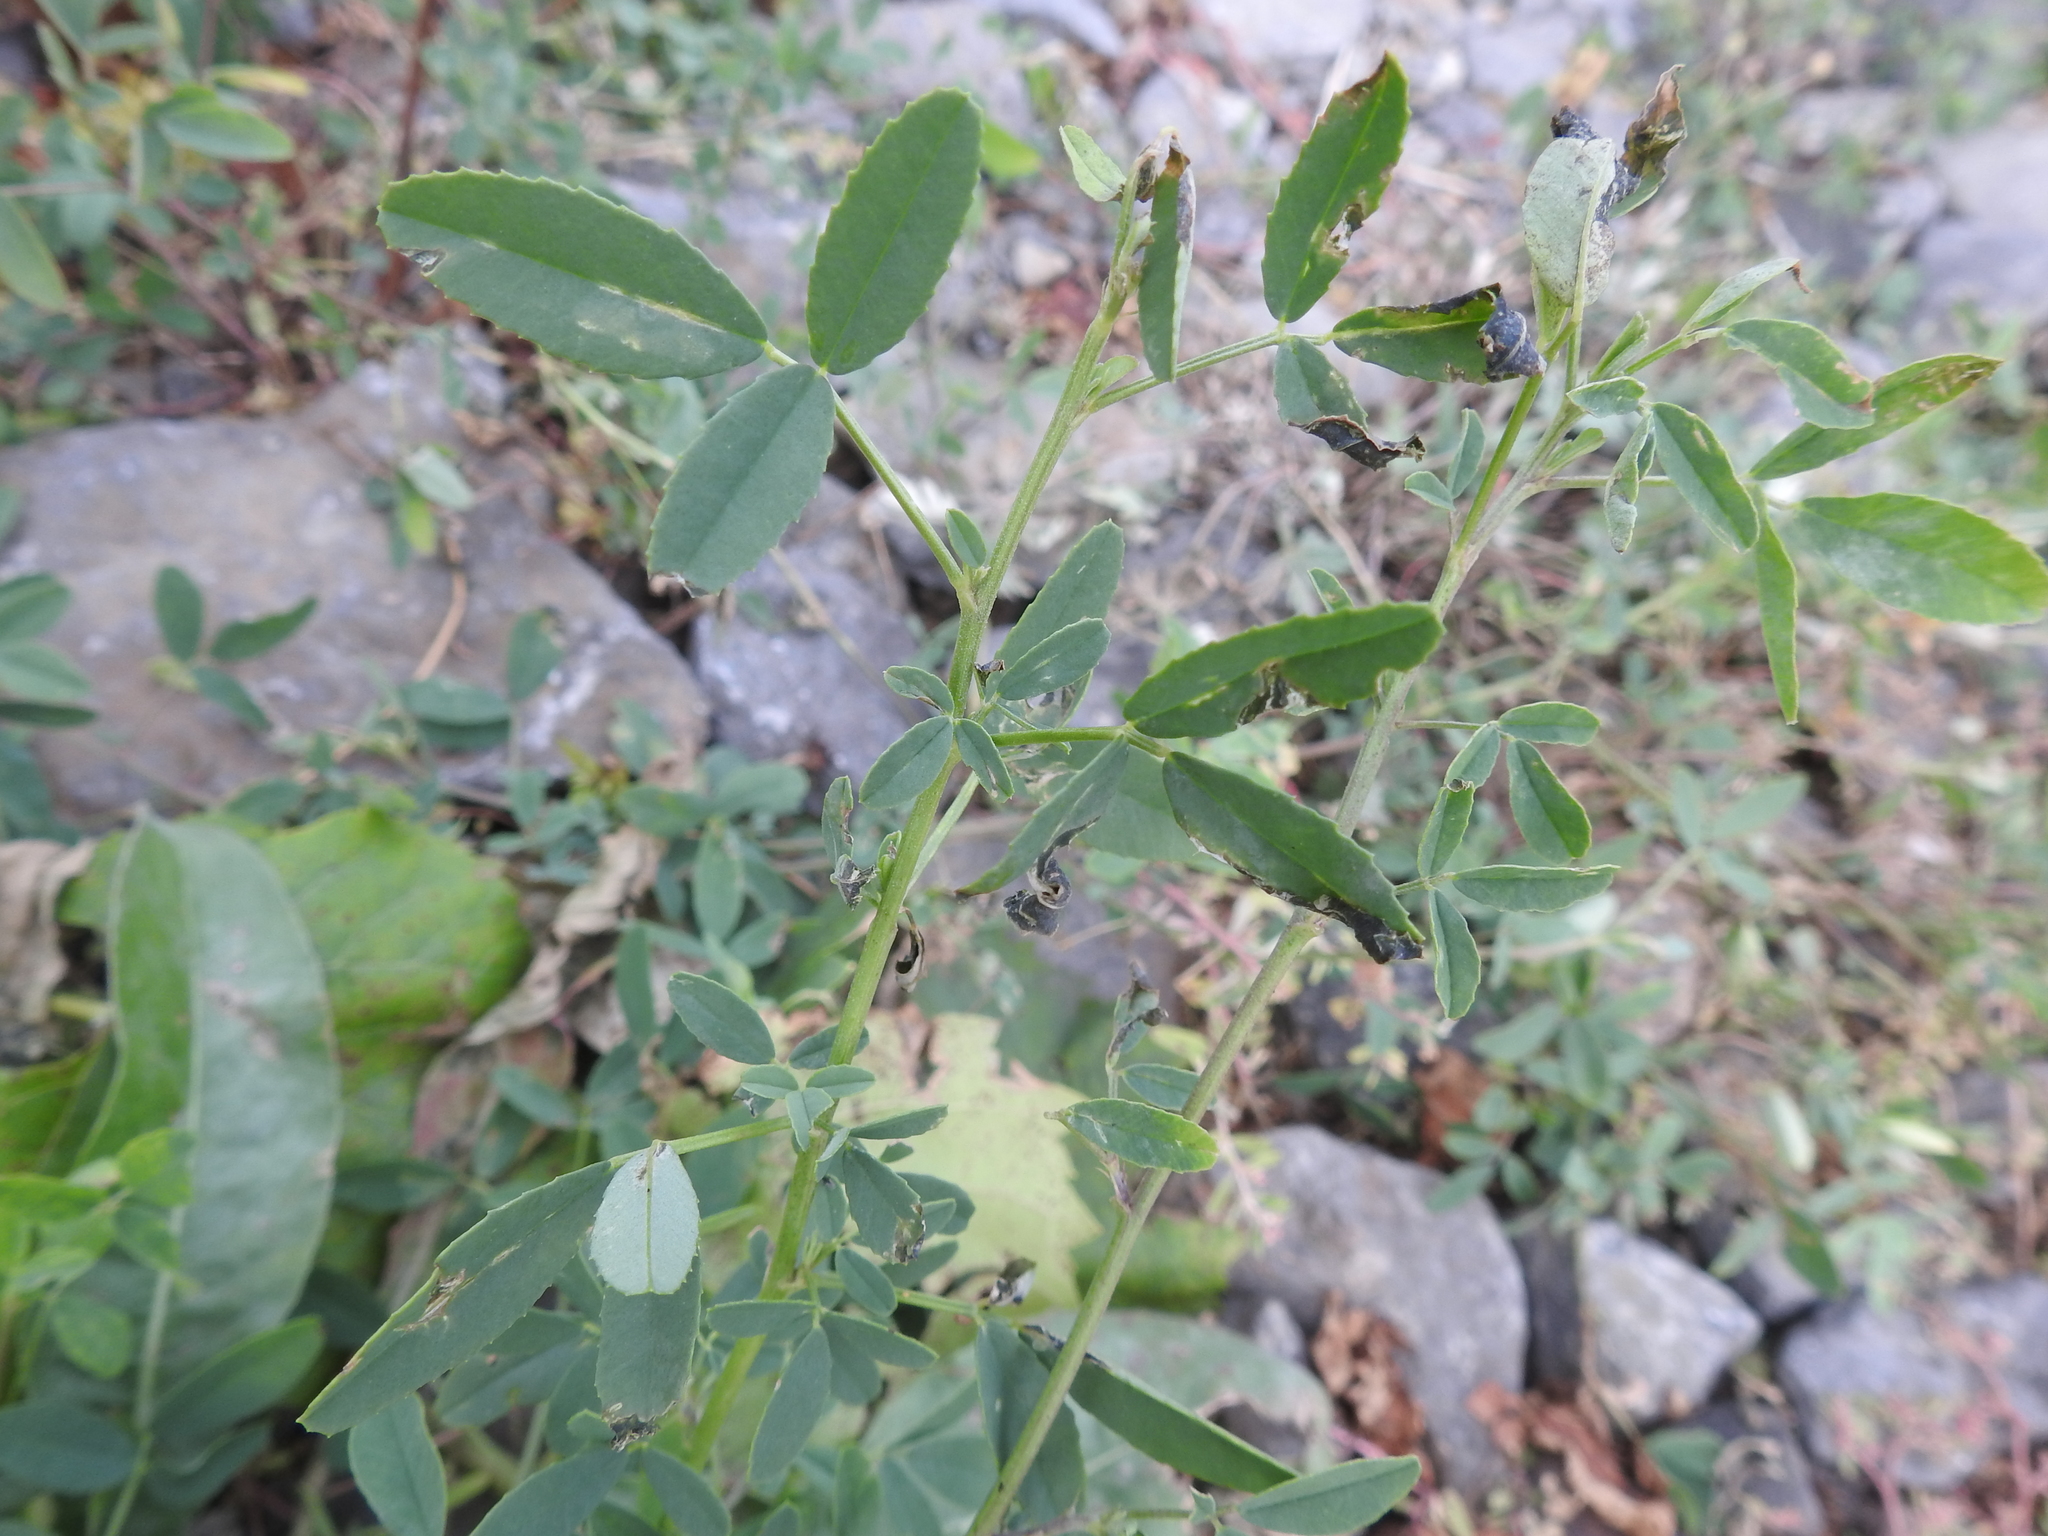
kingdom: Plantae
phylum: Tracheophyta
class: Magnoliopsida
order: Fabales
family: Fabaceae
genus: Melilotus
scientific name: Melilotus albus
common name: White melilot
